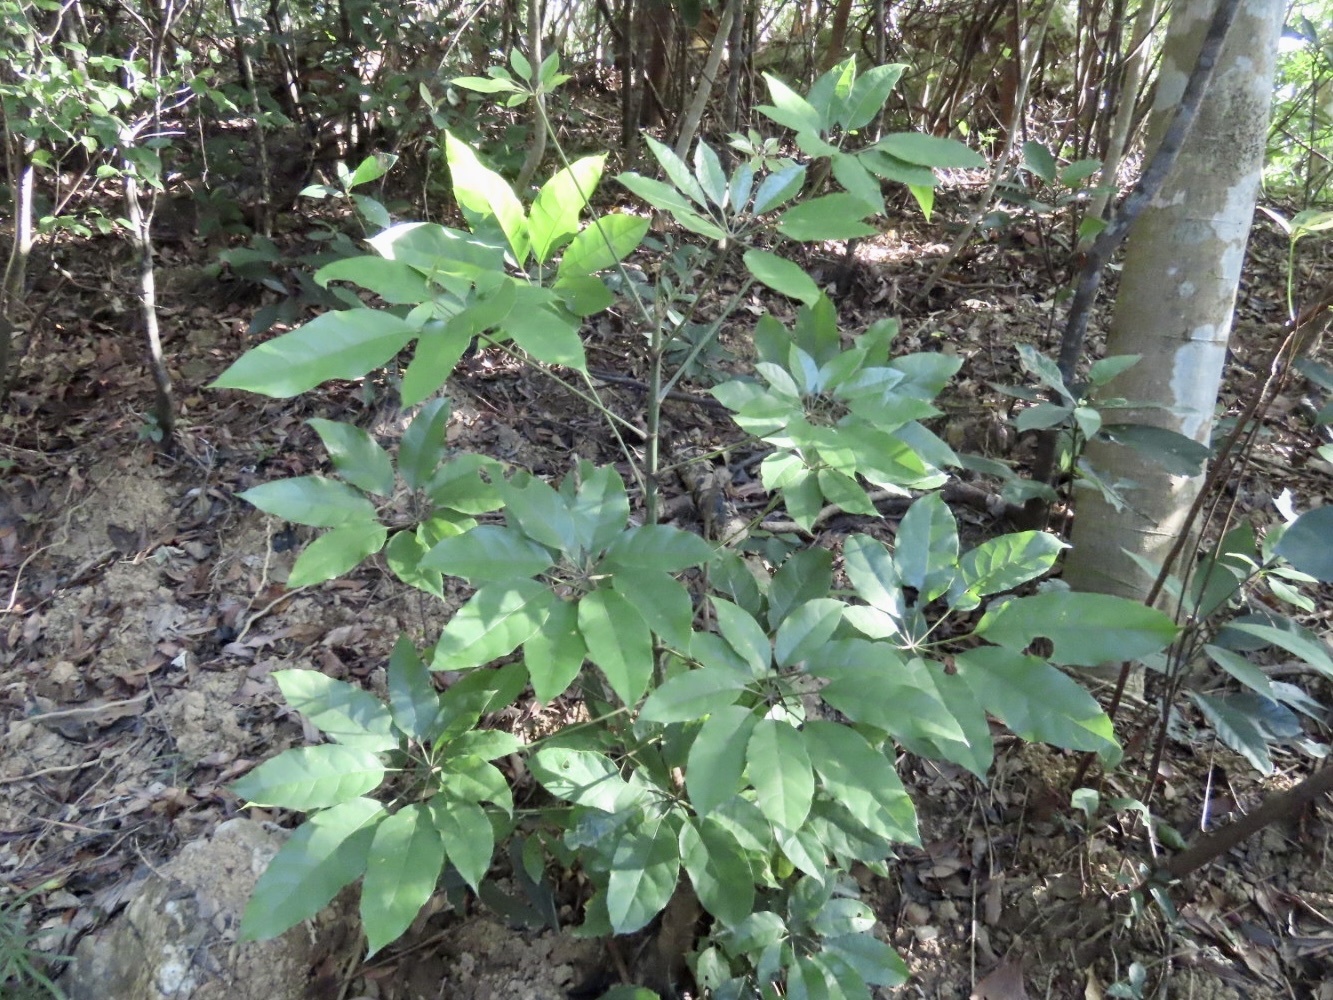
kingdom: Plantae
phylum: Tracheophyta
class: Magnoliopsida
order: Apiales
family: Araliaceae
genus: Heptapleurum
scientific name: Heptapleurum heptaphyllum
